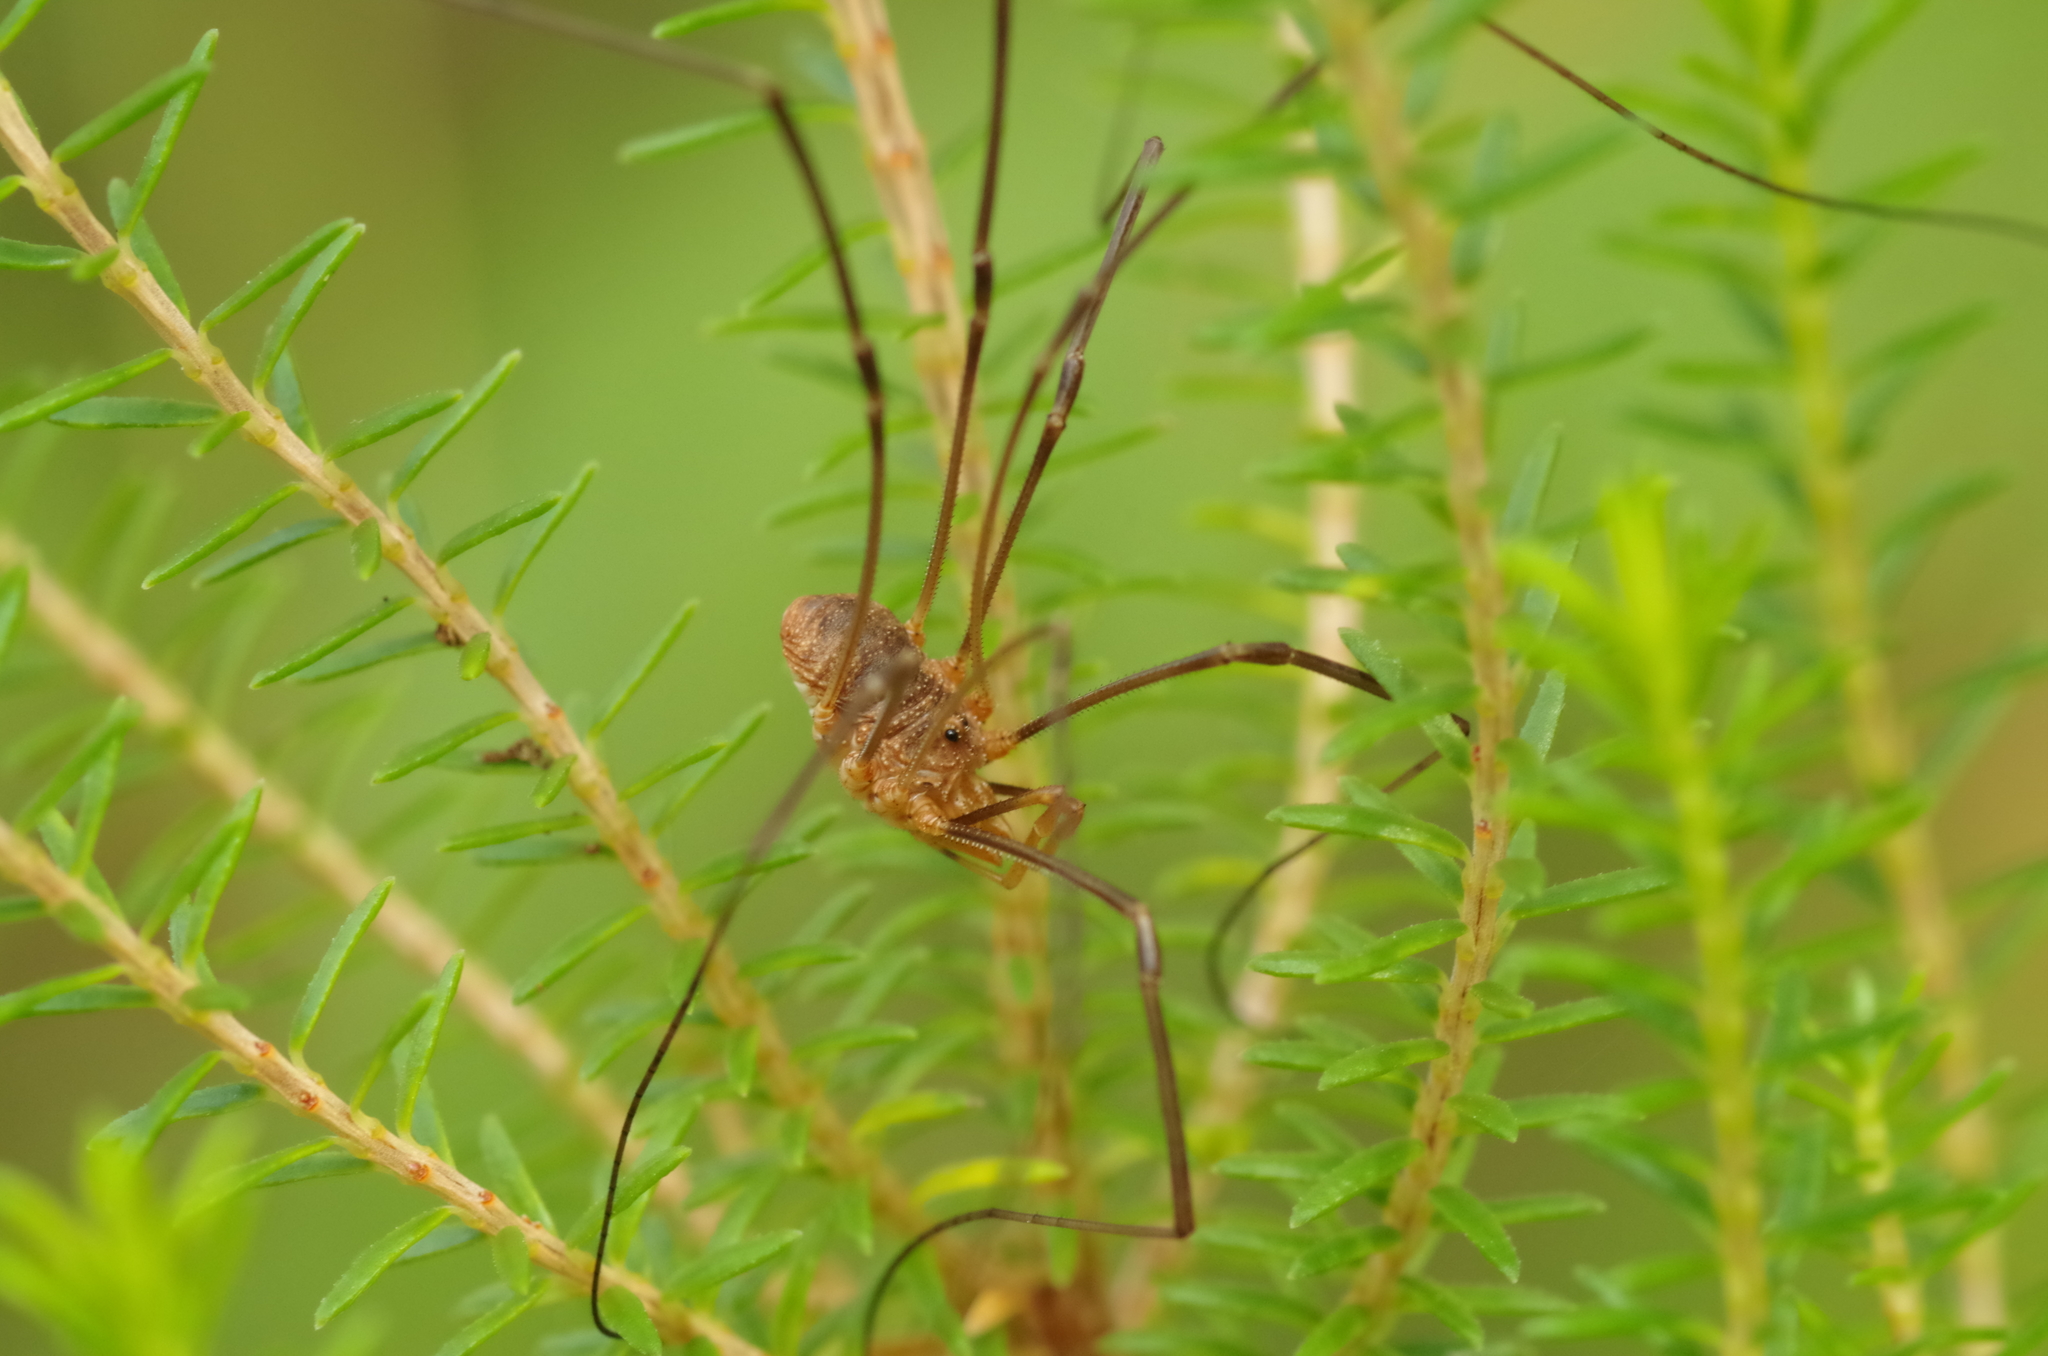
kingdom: Animalia
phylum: Arthropoda
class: Arachnida
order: Opiliones
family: Phalangiidae
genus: Phalangium
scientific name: Phalangium opilio
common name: Daddy longleg
